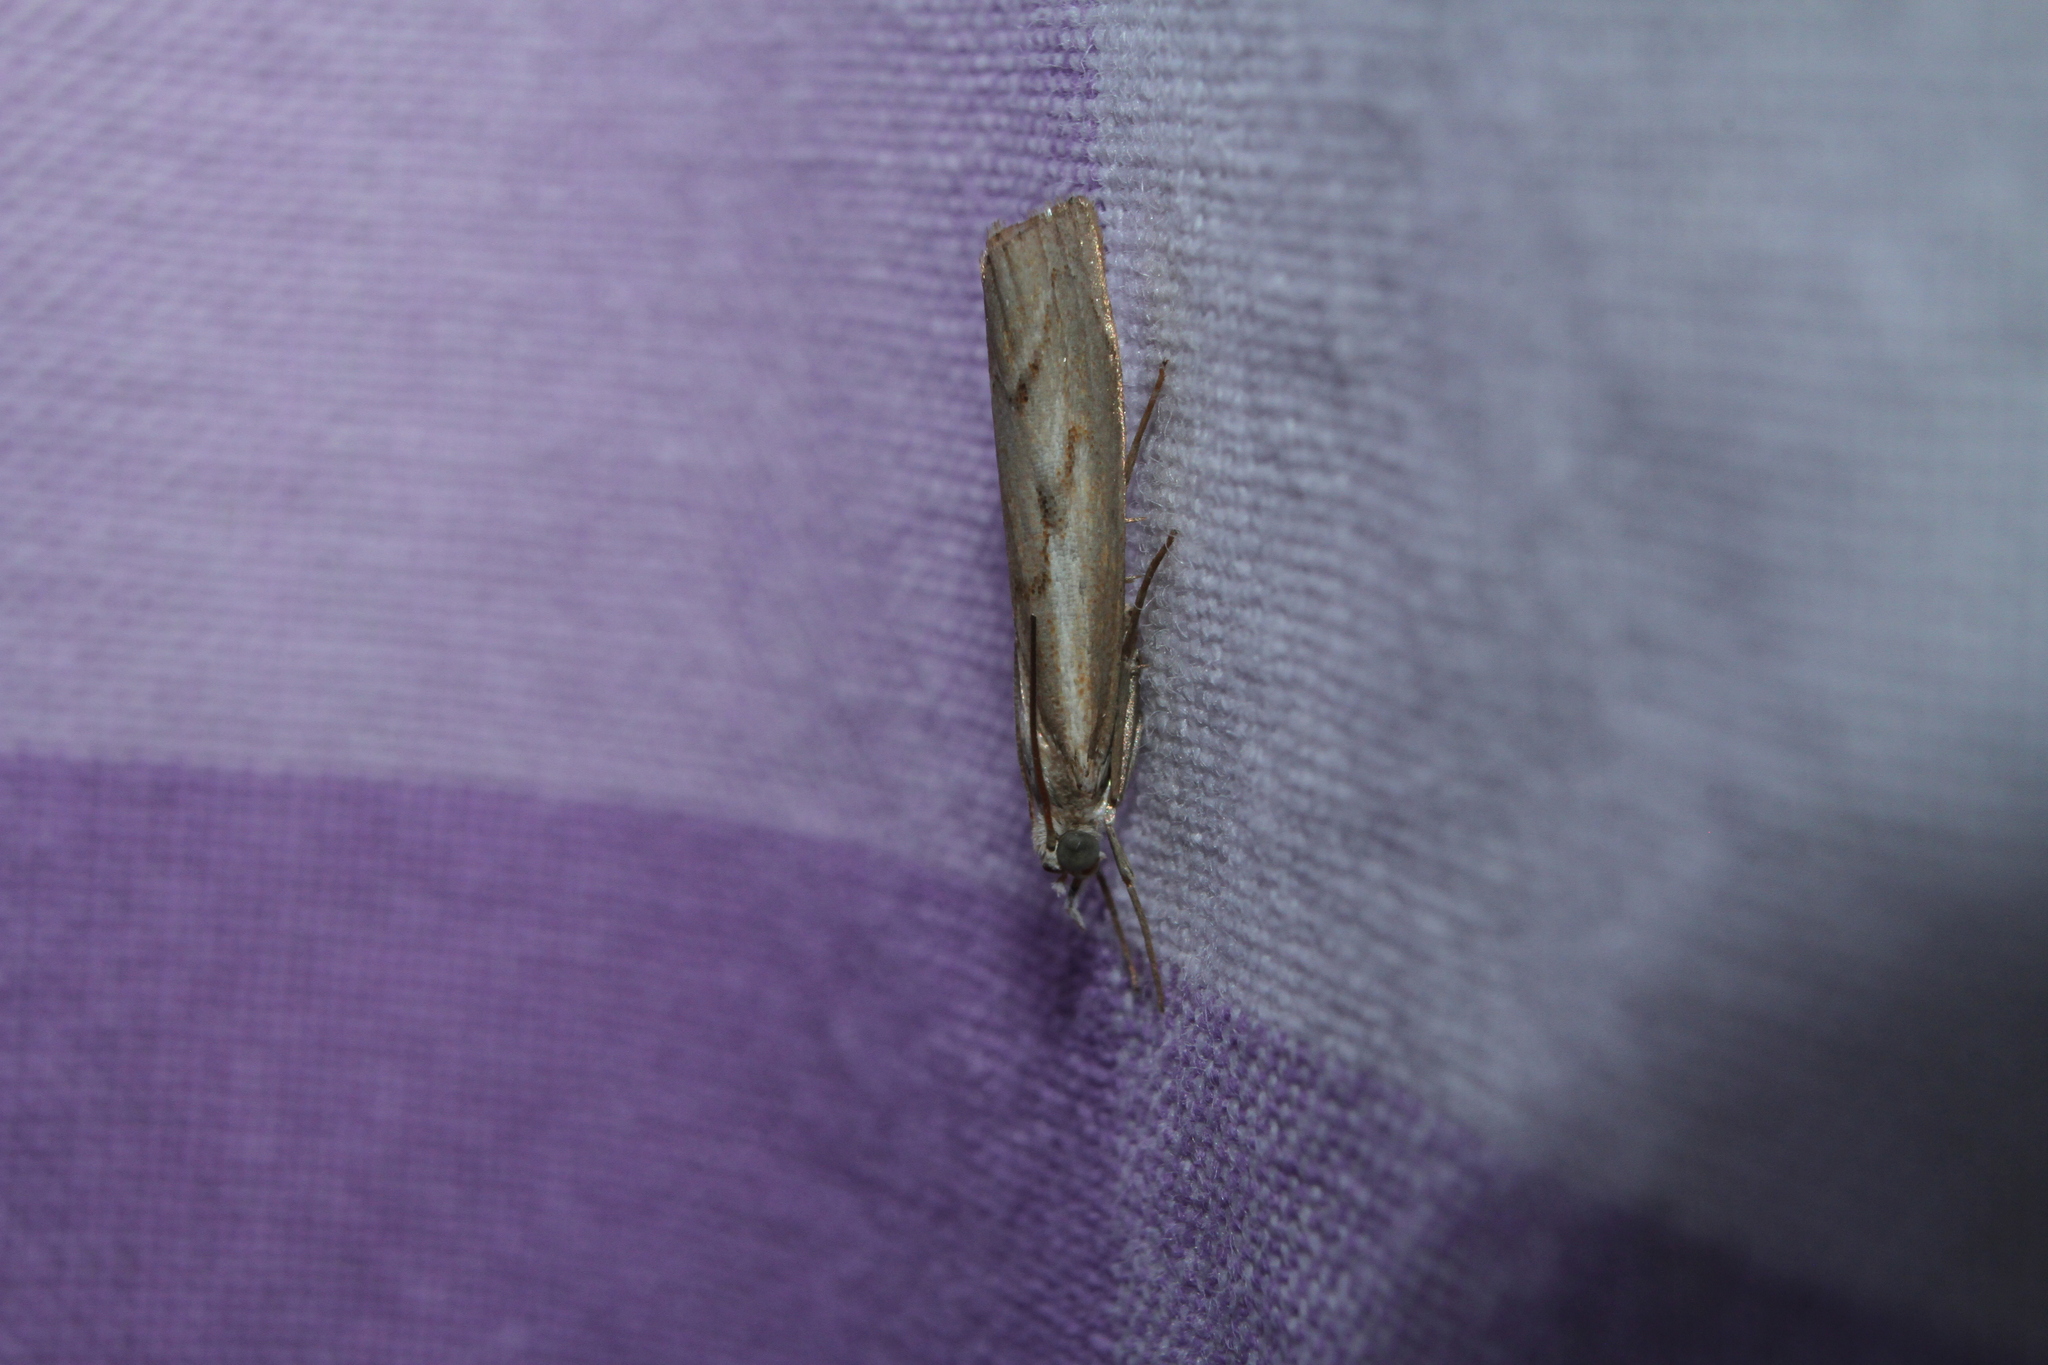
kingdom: Animalia
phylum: Arthropoda
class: Insecta
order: Lepidoptera
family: Crambidae
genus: Agriphila
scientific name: Agriphila geniculea
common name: Elbow-stripe grass-veneer
